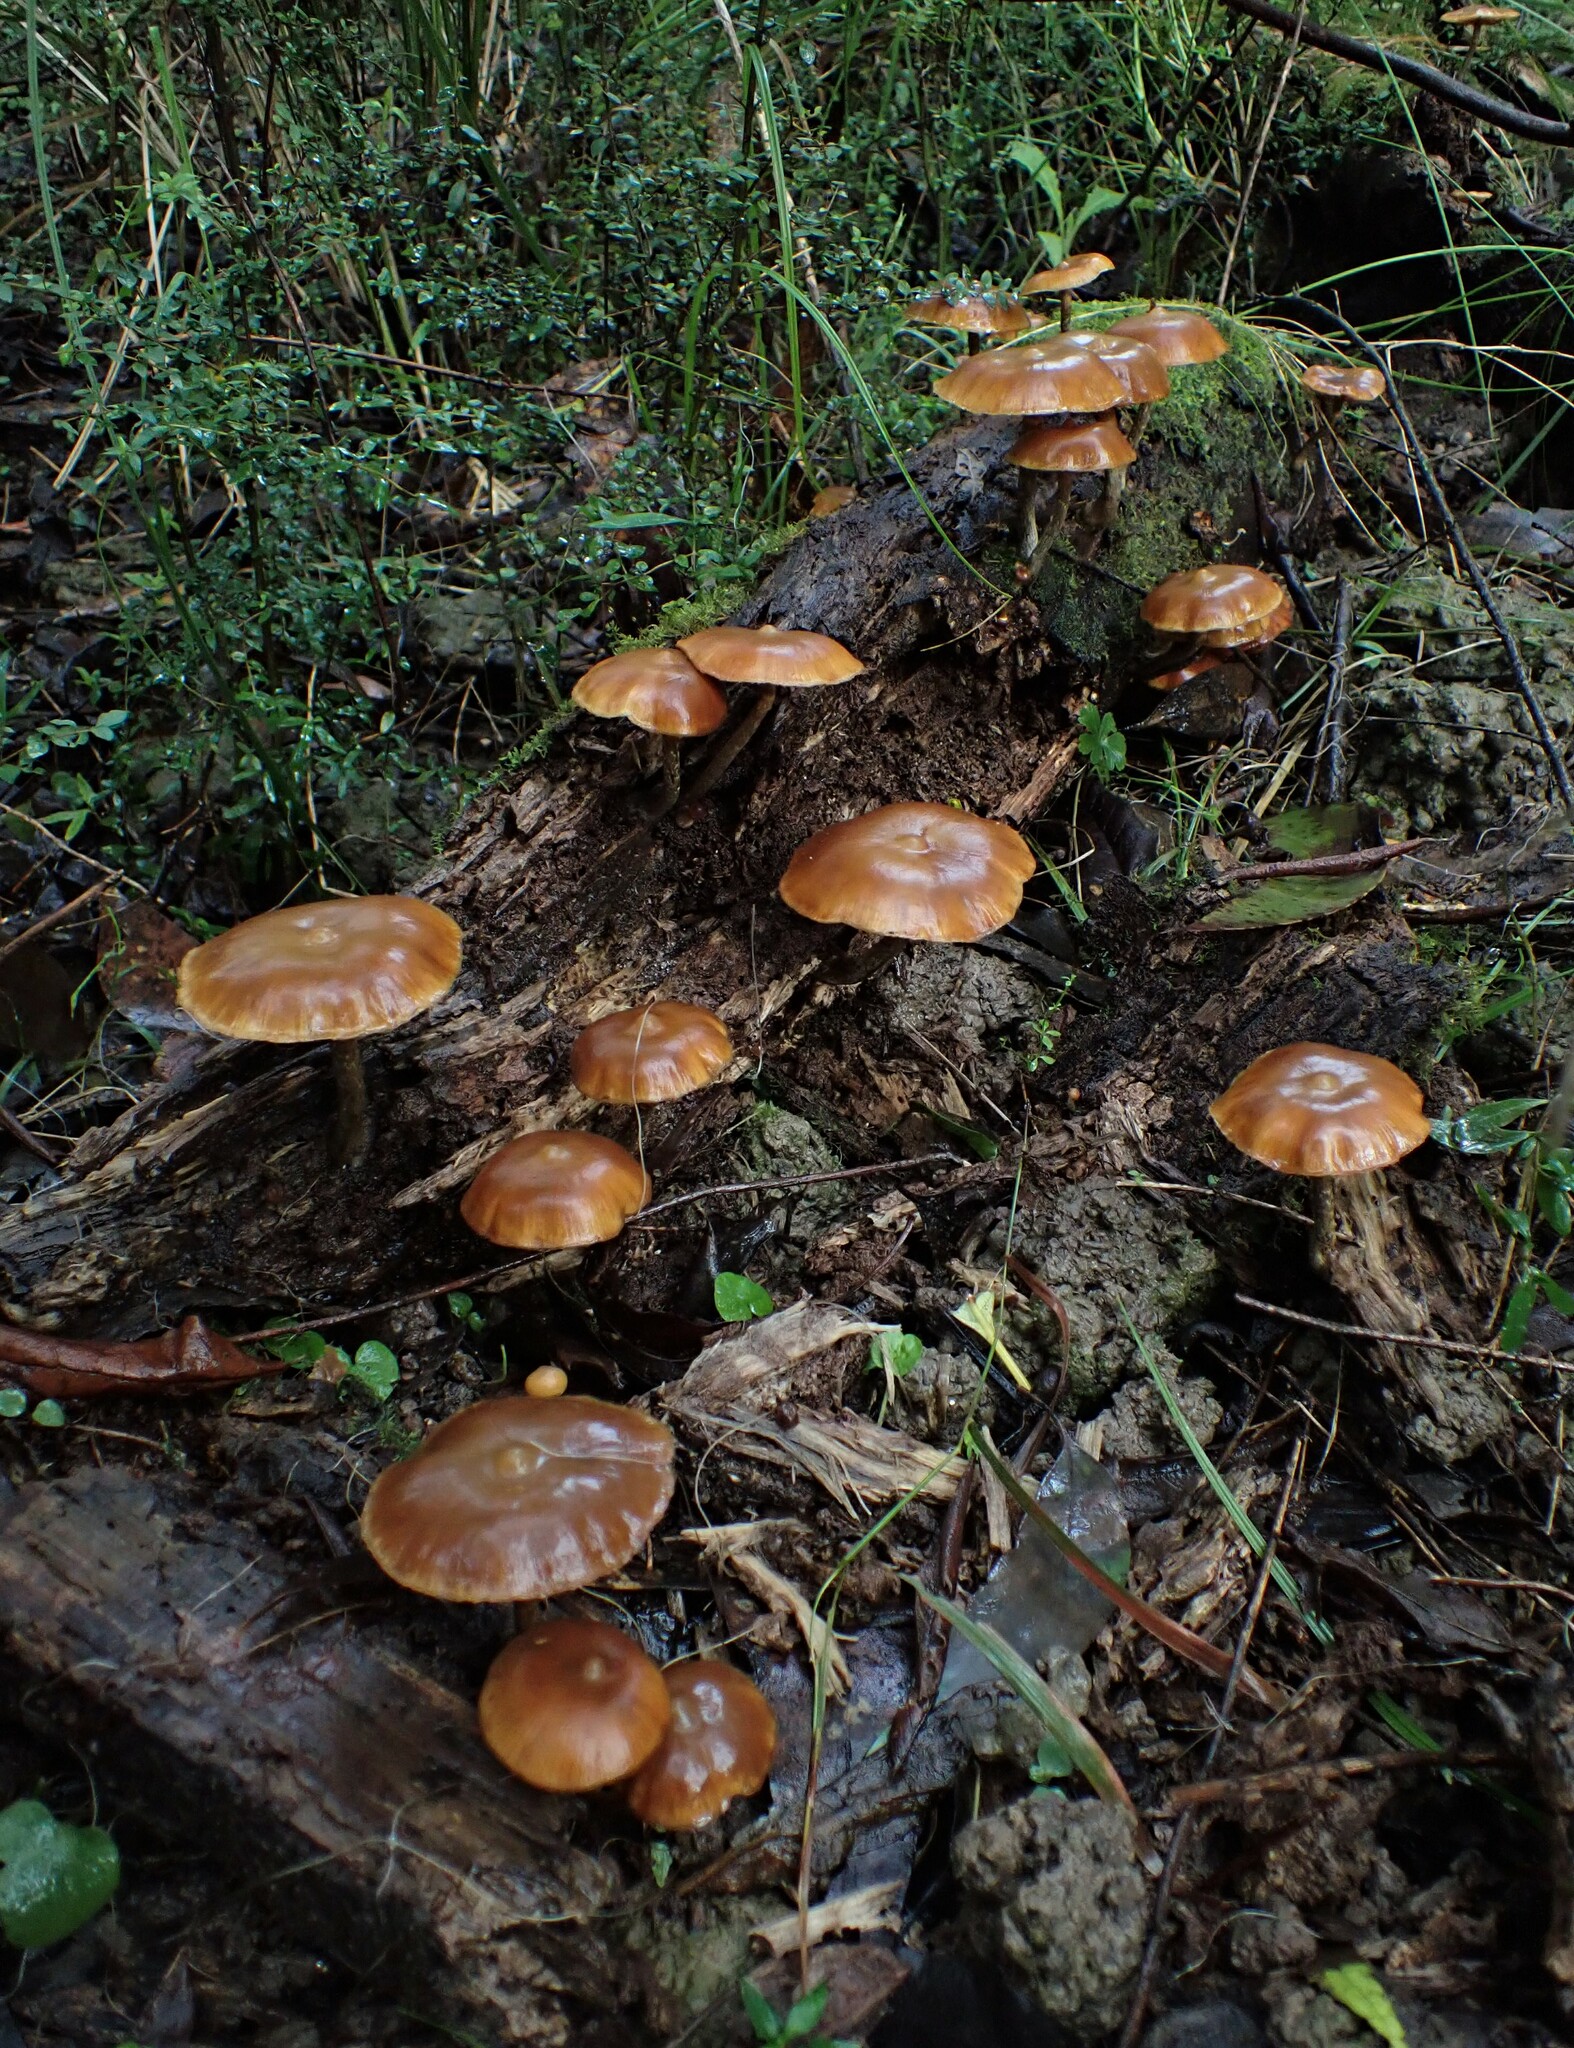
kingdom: Fungi
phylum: Basidiomycota
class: Agaricomycetes
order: Agaricales
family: Hymenogastraceae
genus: Galerina
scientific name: Galerina patagonica
